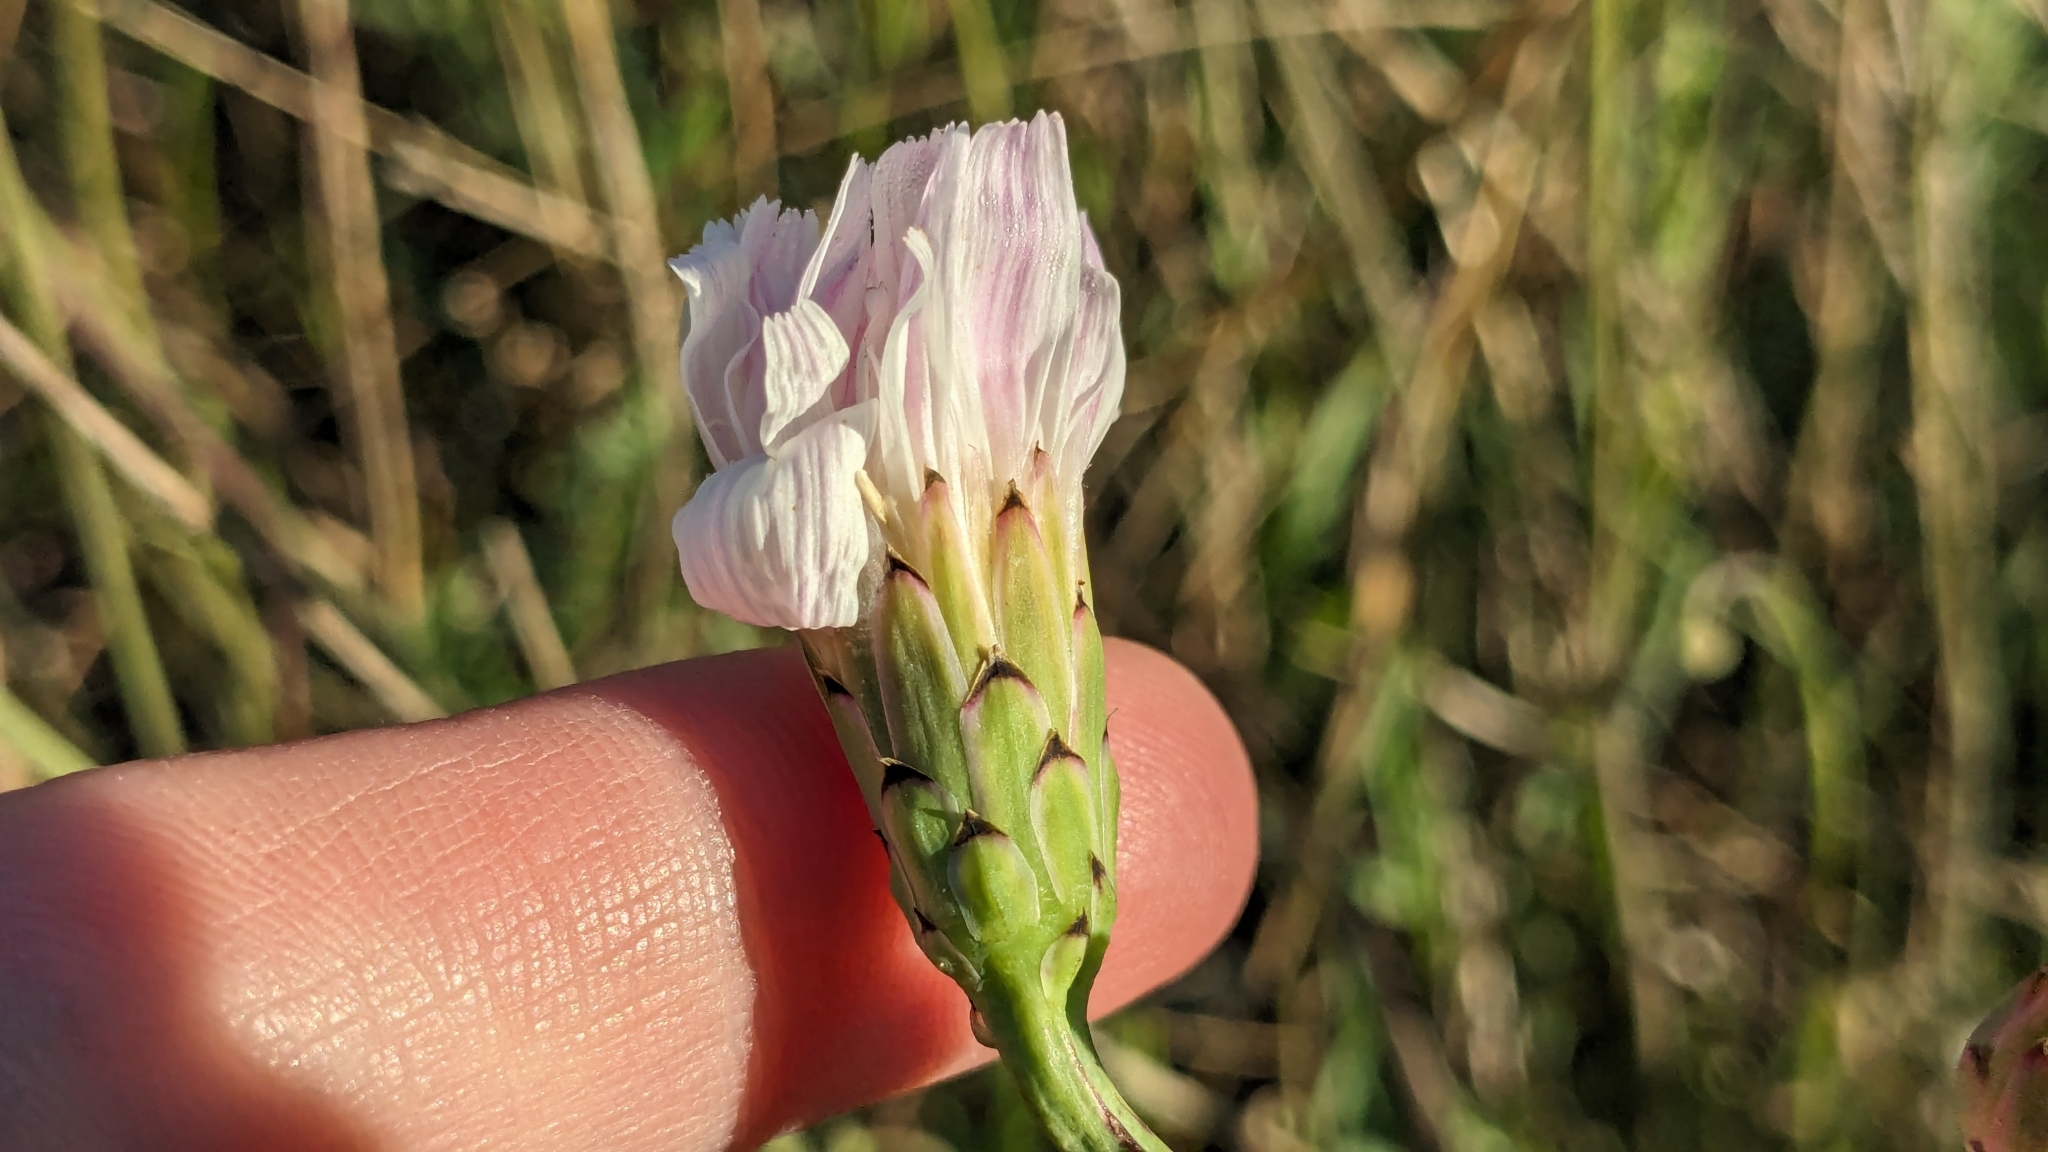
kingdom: Plantae
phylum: Tracheophyta
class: Magnoliopsida
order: Asterales
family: Asteraceae
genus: Pinaropappus
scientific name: Pinaropappus roseus
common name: Rock-lettuce
